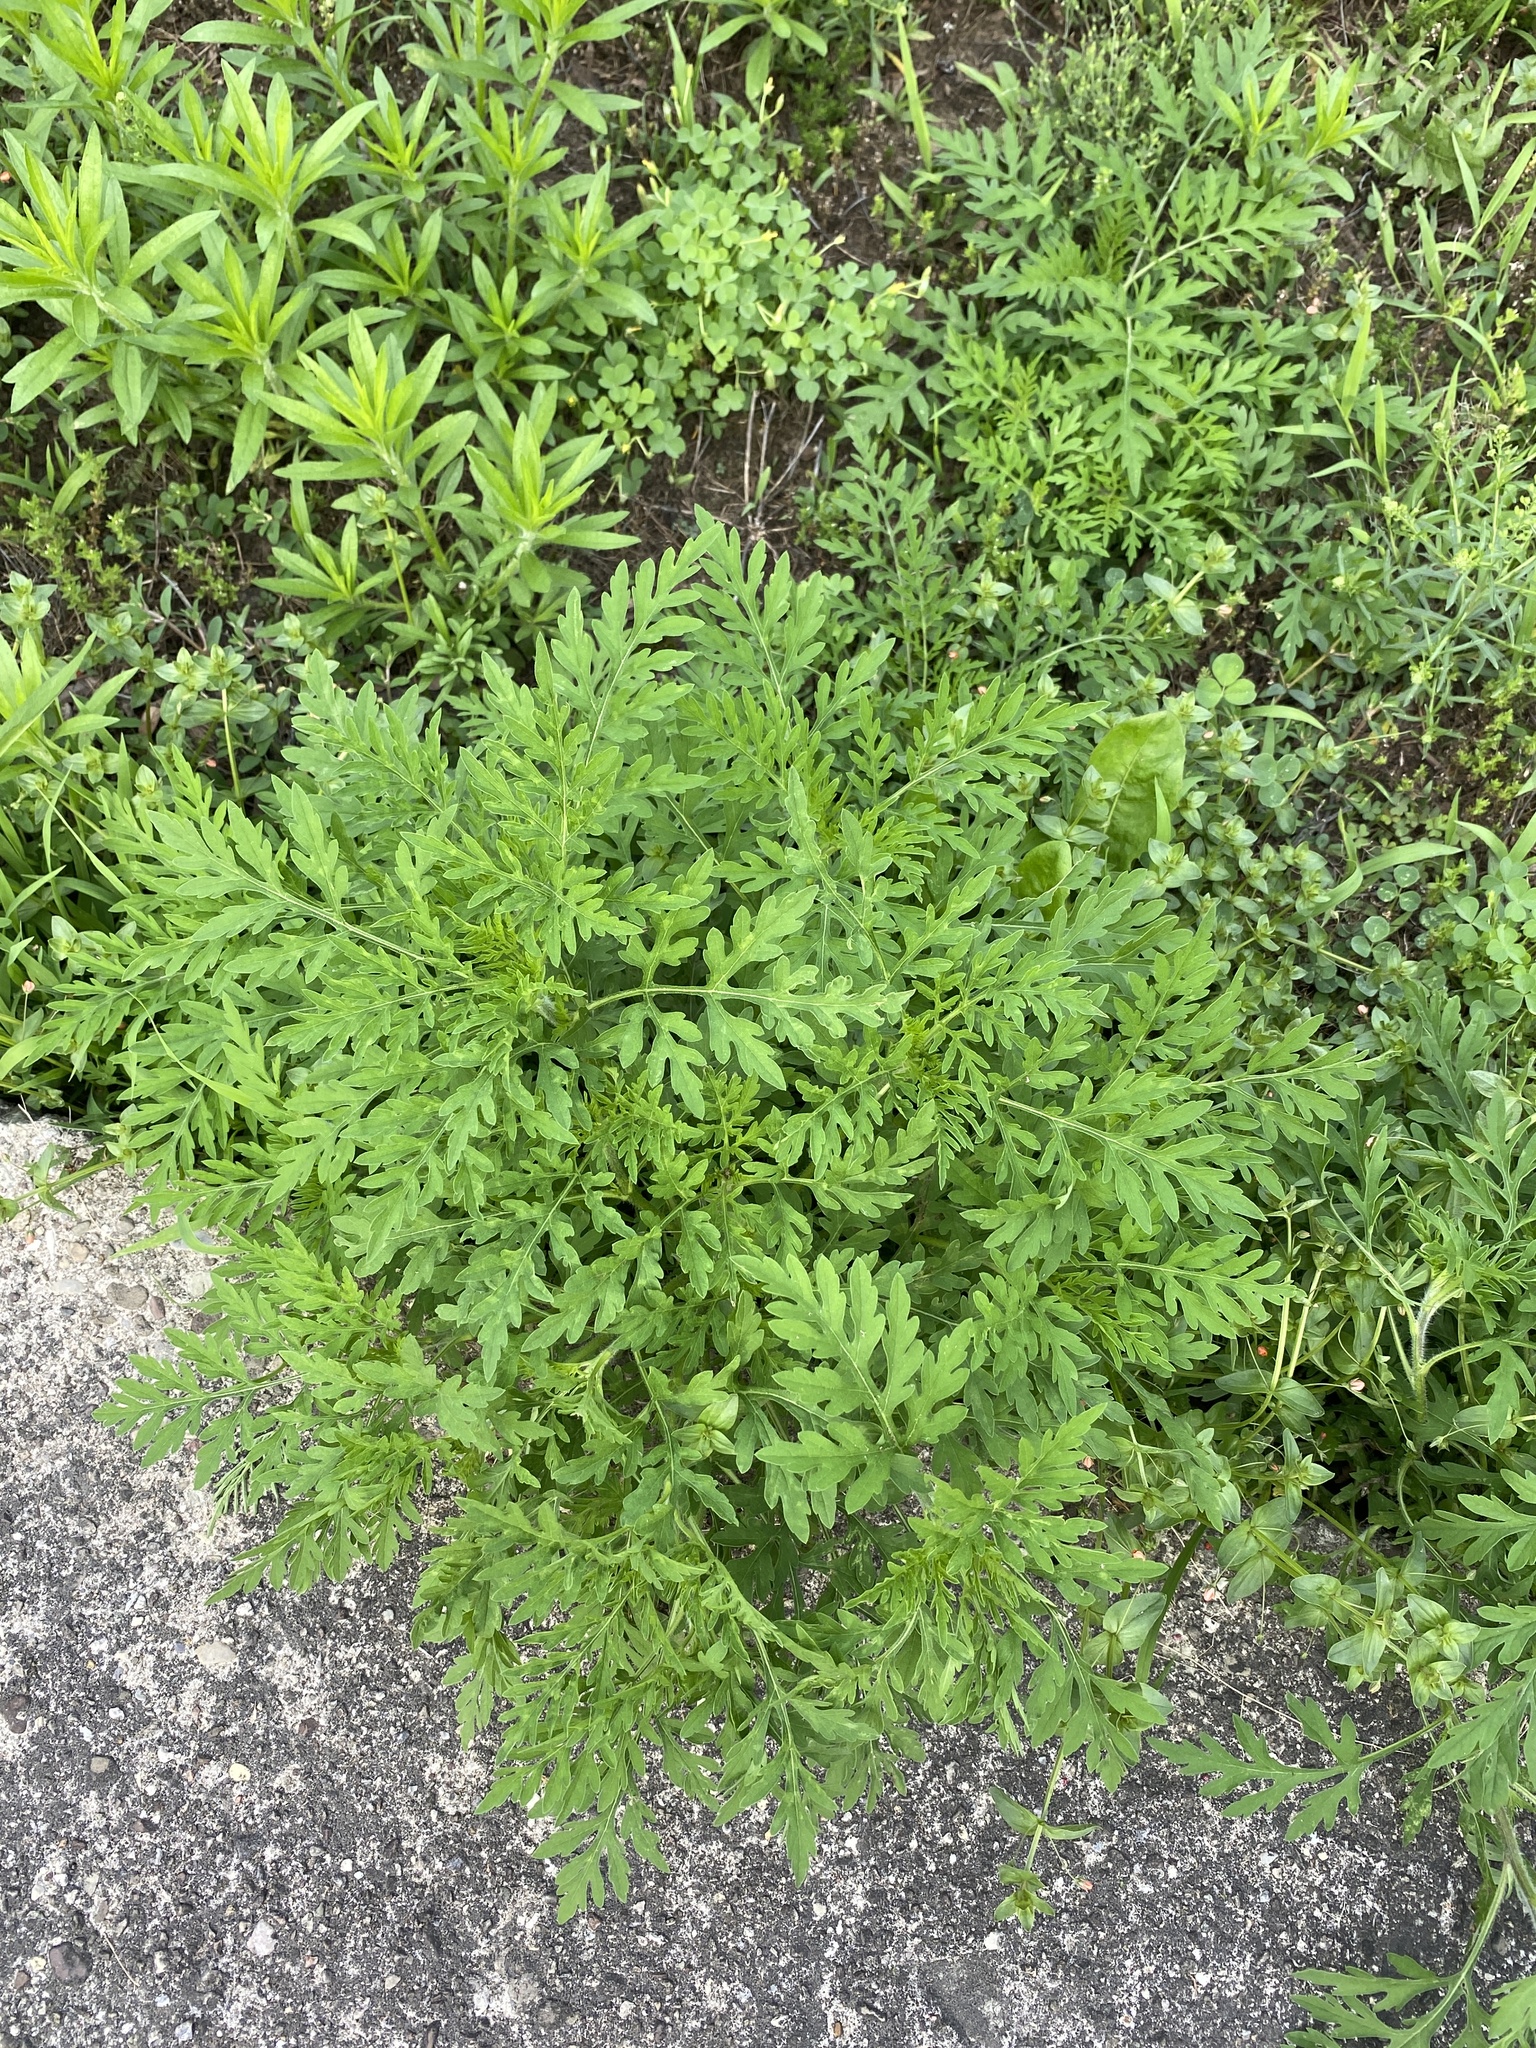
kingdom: Plantae
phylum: Tracheophyta
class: Magnoliopsida
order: Asterales
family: Asteraceae
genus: Ambrosia
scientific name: Ambrosia artemisiifolia
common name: Annual ragweed
